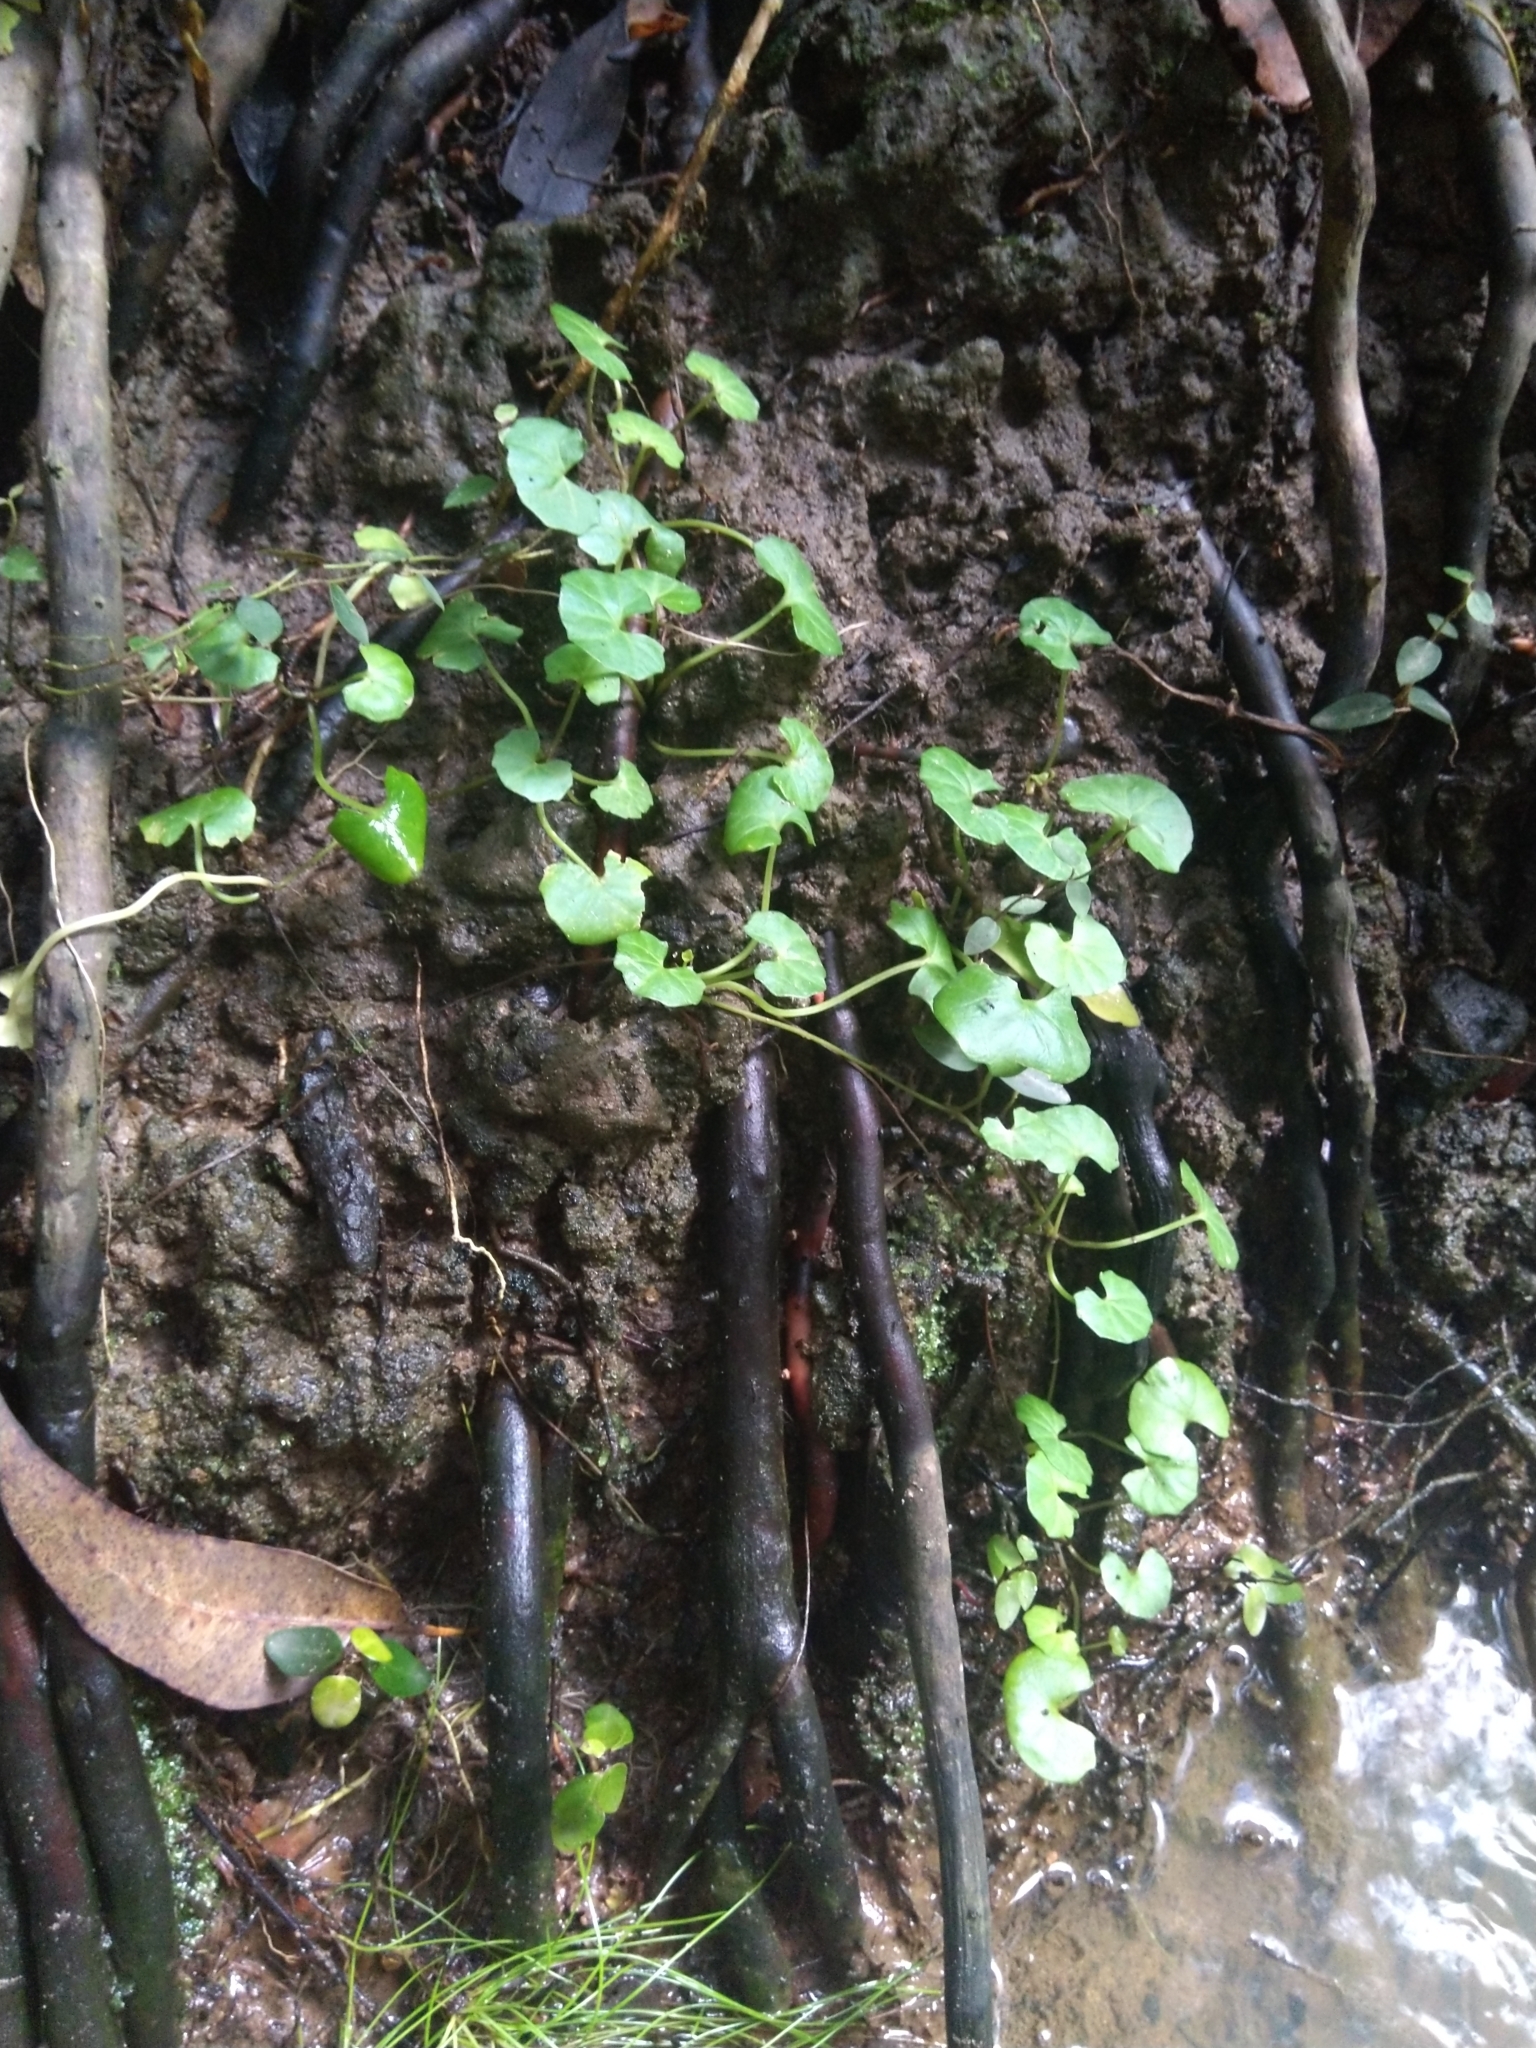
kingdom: Plantae
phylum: Tracheophyta
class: Magnoliopsida
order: Malpighiales
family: Violaceae
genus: Viola
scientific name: Viola banksii
